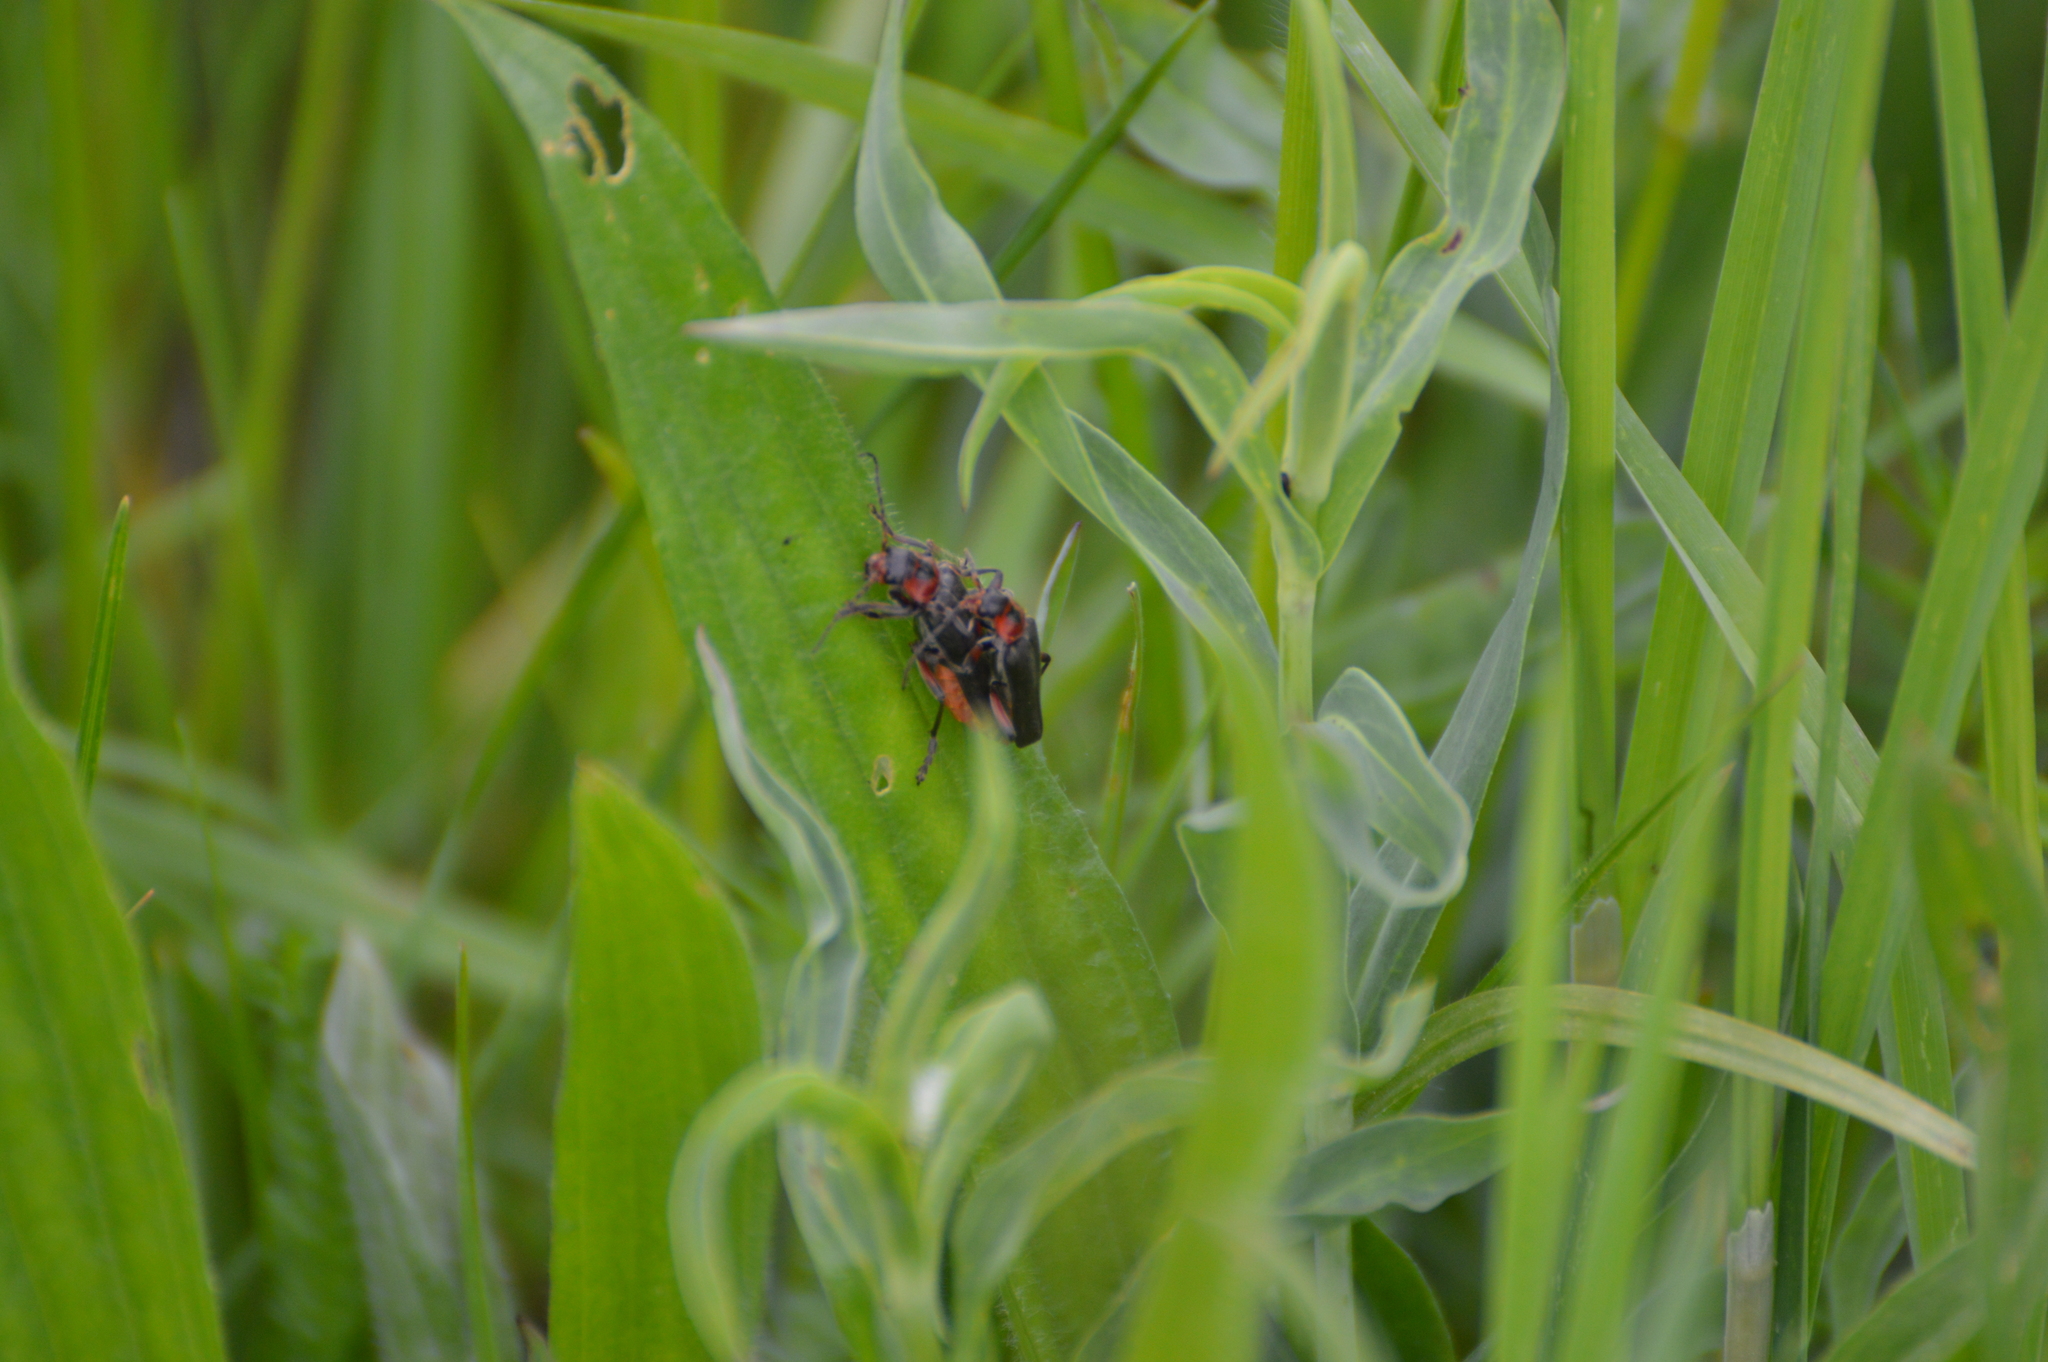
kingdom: Animalia
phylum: Arthropoda
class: Insecta
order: Coleoptera
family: Cantharidae
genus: Cantharis
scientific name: Cantharis rustica
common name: Soldier beetle
